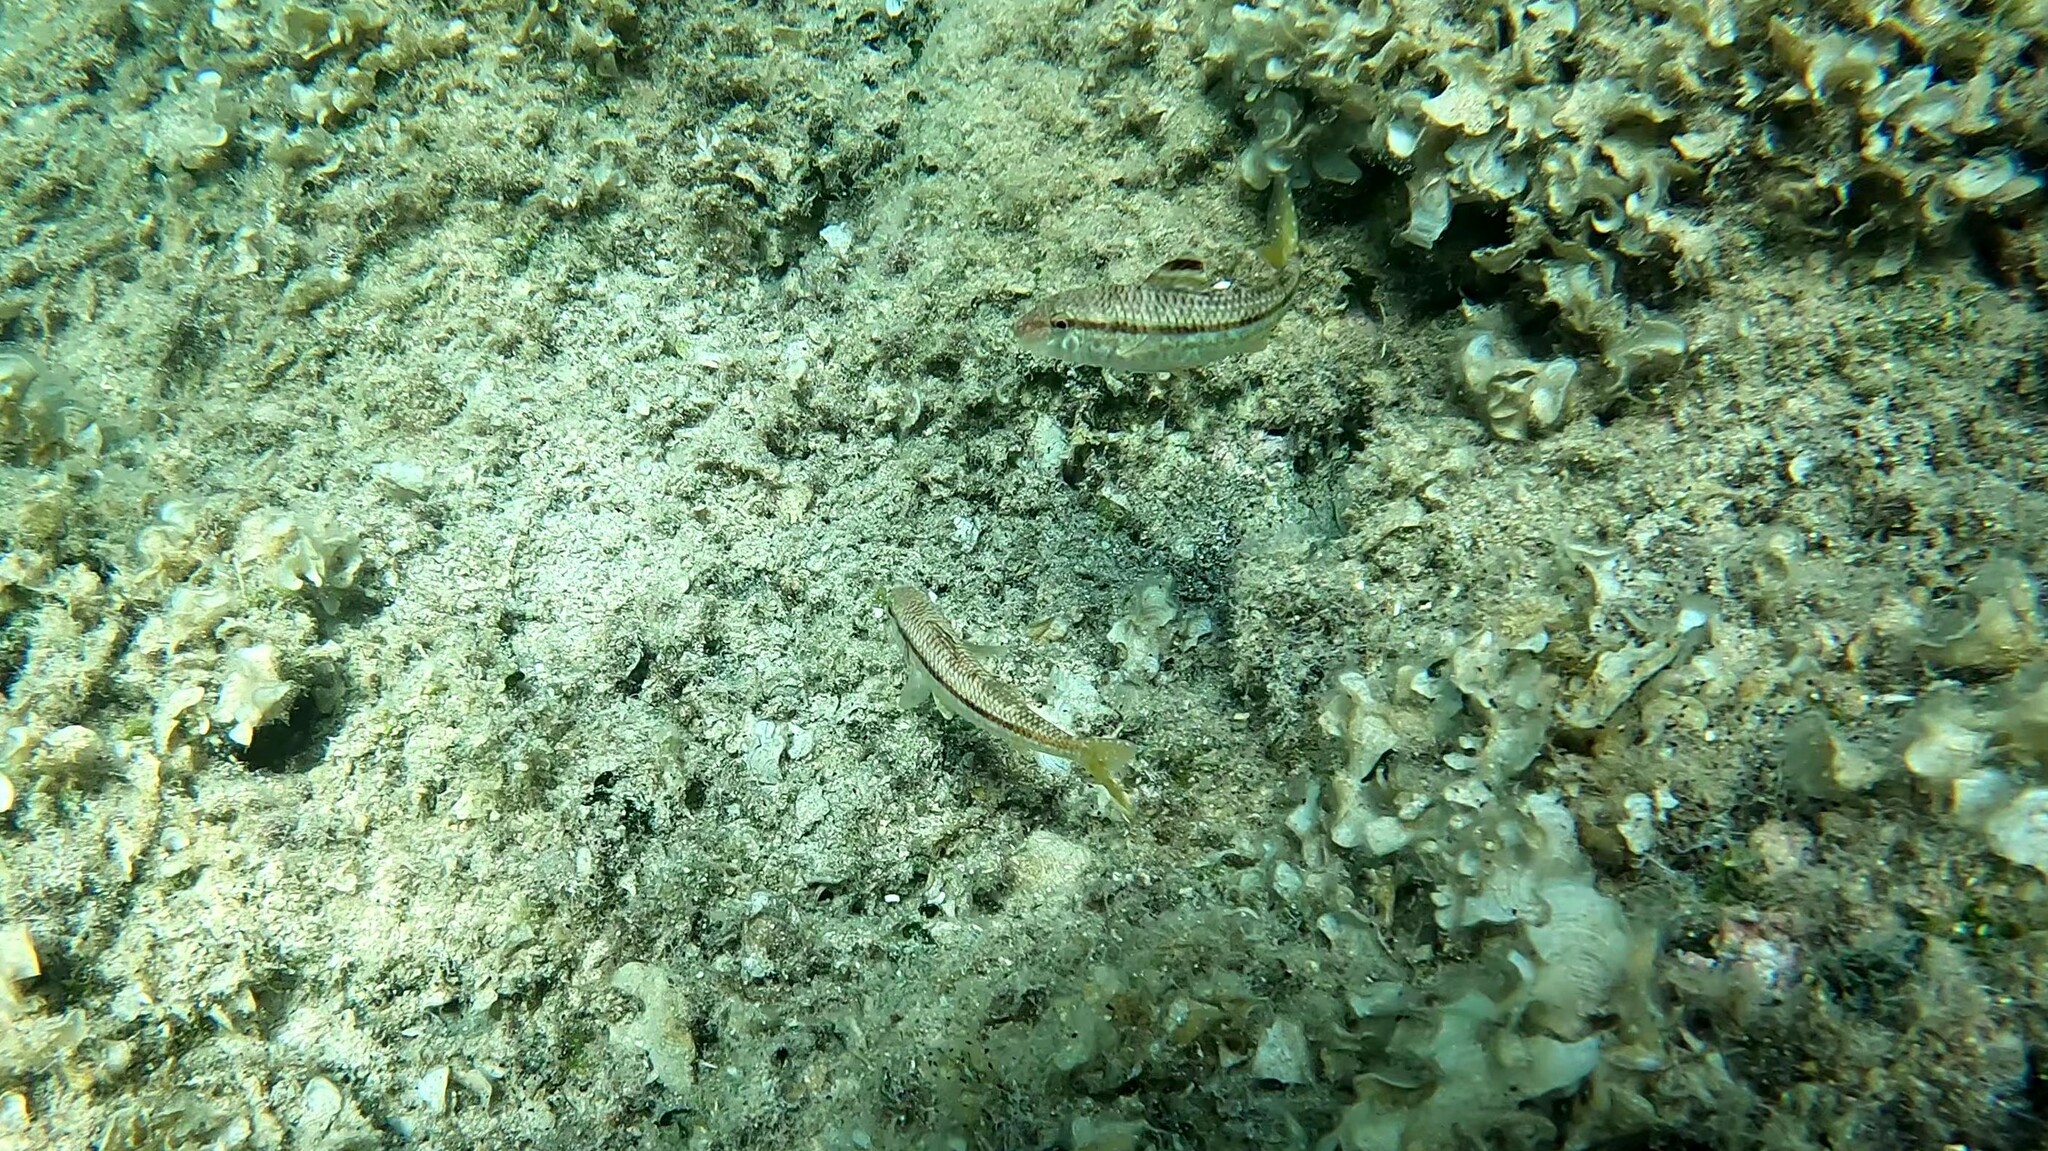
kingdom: Animalia
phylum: Chordata
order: Perciformes
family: Mullidae
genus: Mullus
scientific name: Mullus surmuletus
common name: Red mullet
